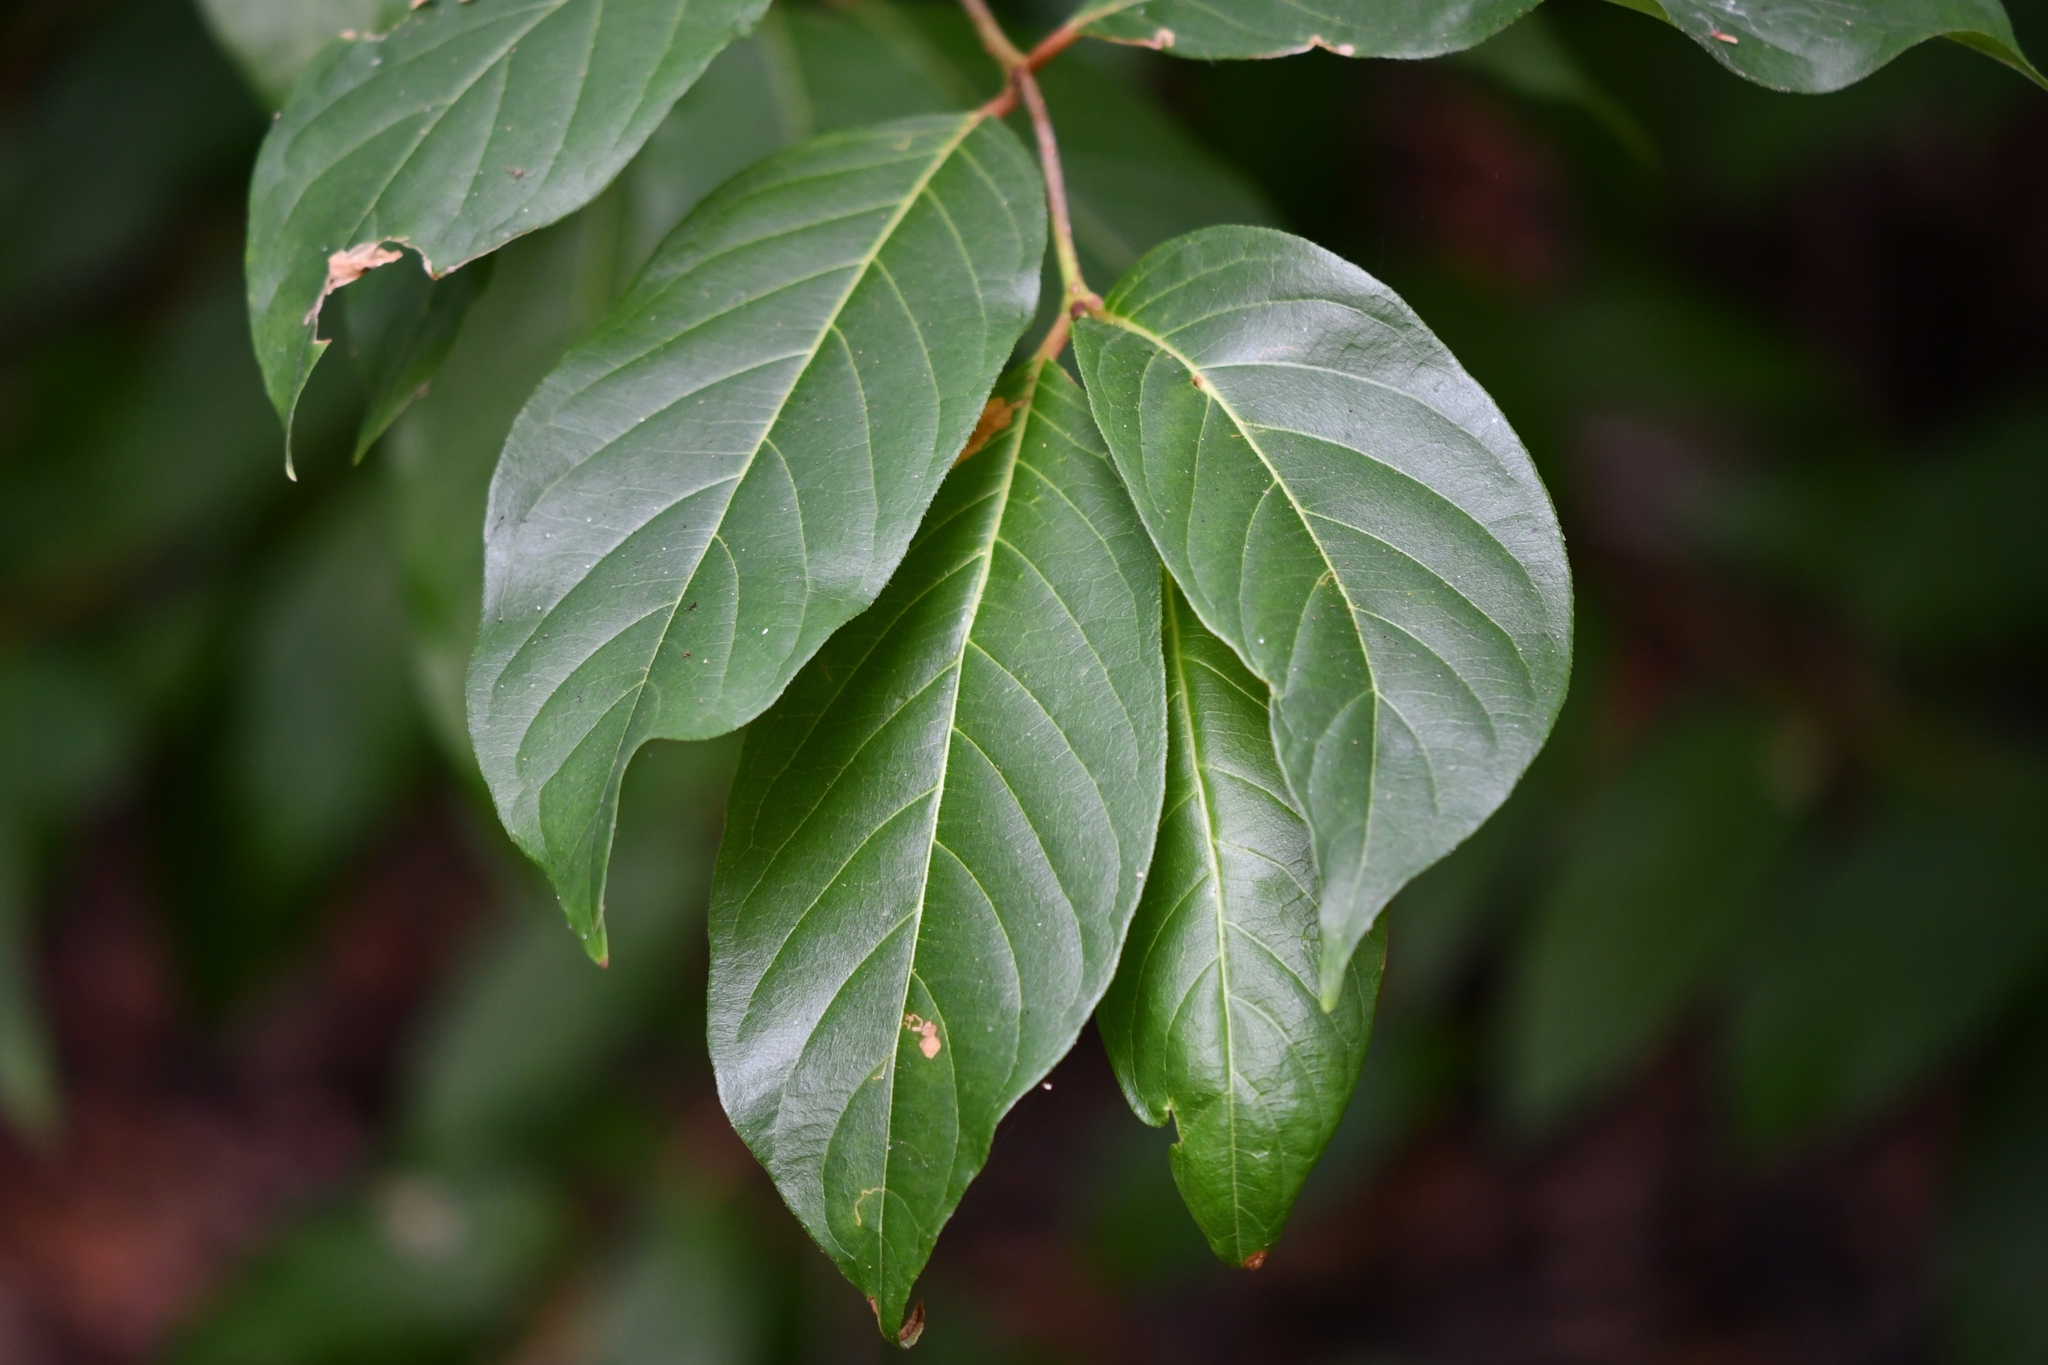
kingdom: Plantae
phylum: Tracheophyta
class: Magnoliopsida
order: Gentianales
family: Rubiaceae
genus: Cephalanthus
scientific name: Cephalanthus occidentalis
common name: Button-willow
